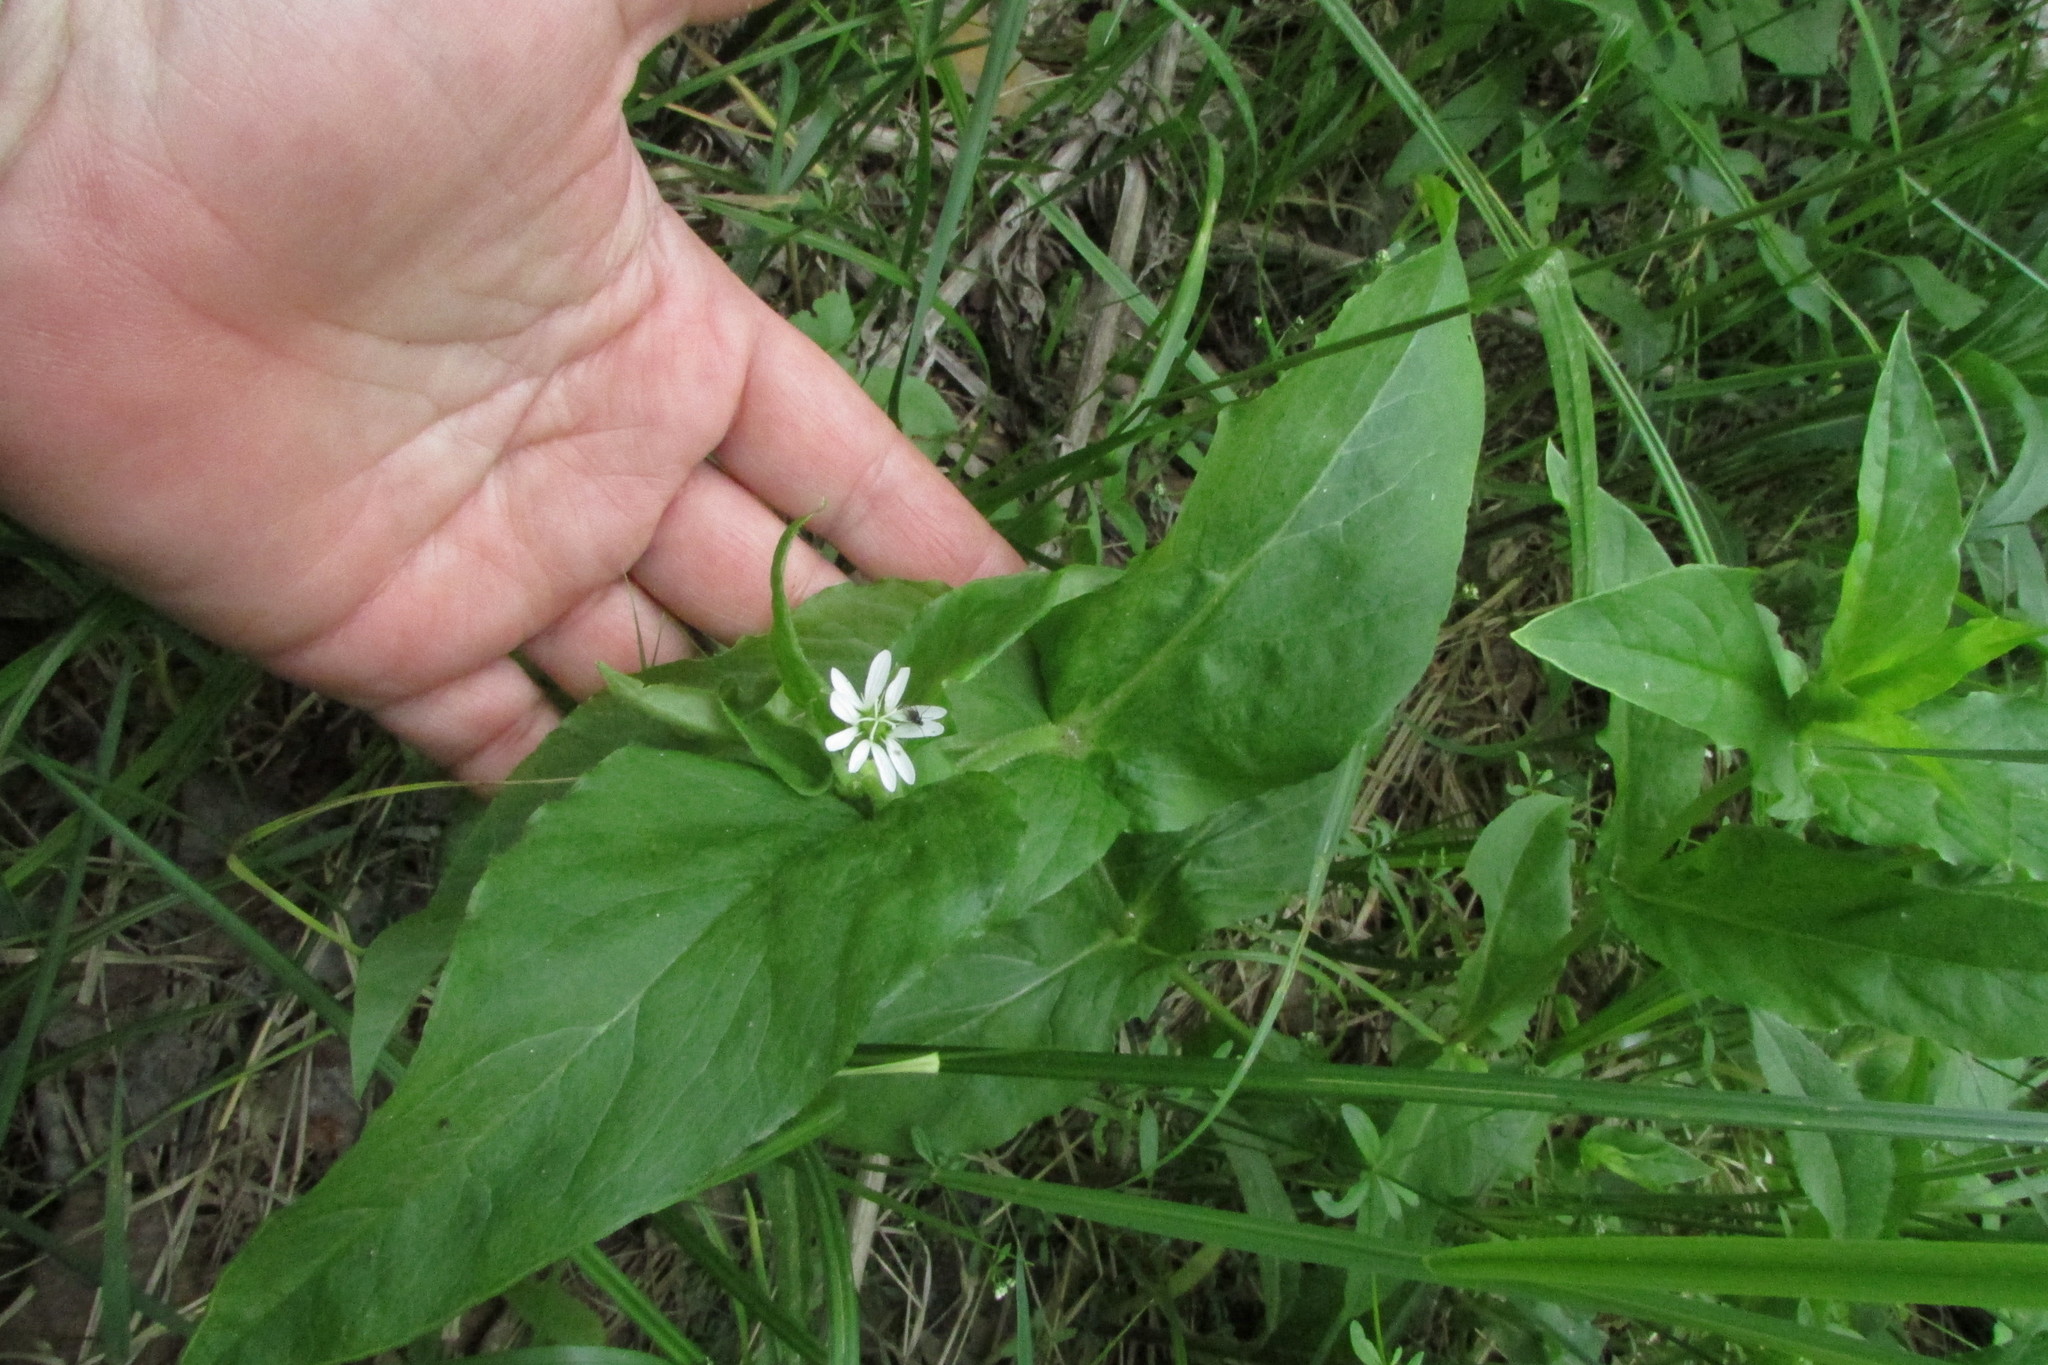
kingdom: Plantae
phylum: Tracheophyta
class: Magnoliopsida
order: Caryophyllales
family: Caryophyllaceae
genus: Stellaria
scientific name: Stellaria aquatica
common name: Water chickweed
